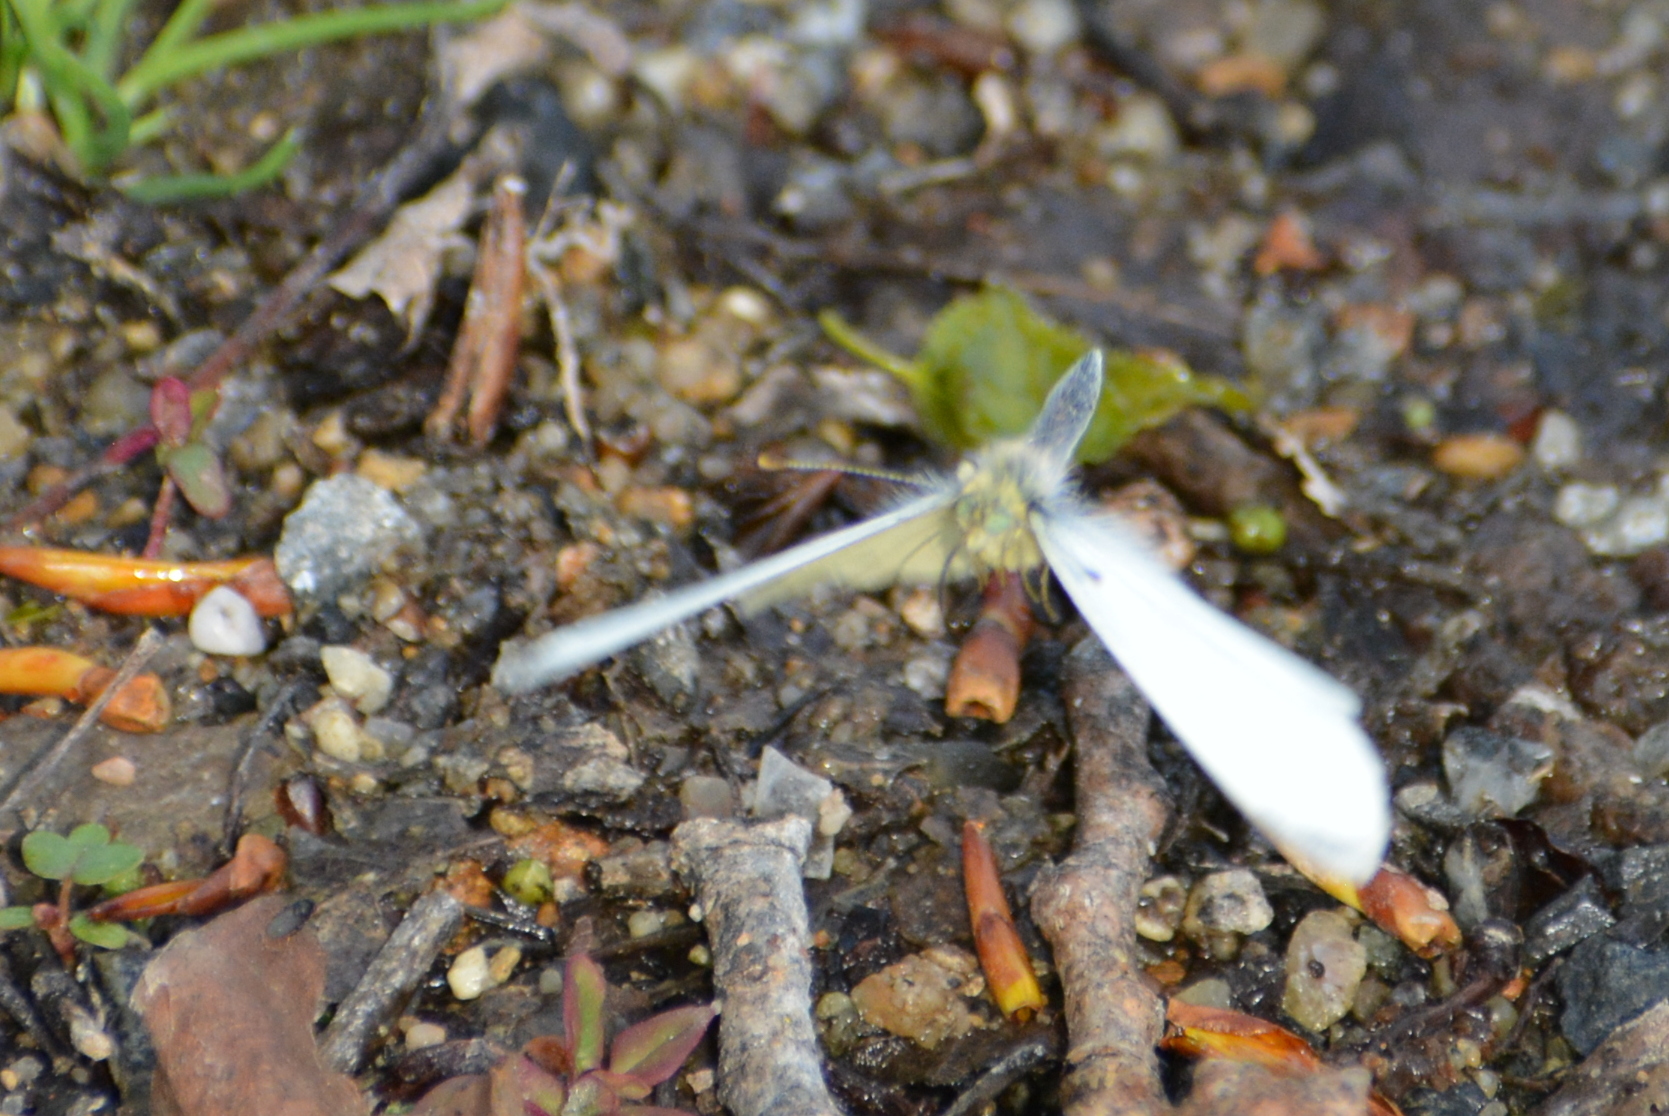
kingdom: Animalia
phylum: Arthropoda
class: Insecta
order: Lepidoptera
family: Pieridae
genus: Pieris
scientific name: Pieris rapae
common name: Small white
